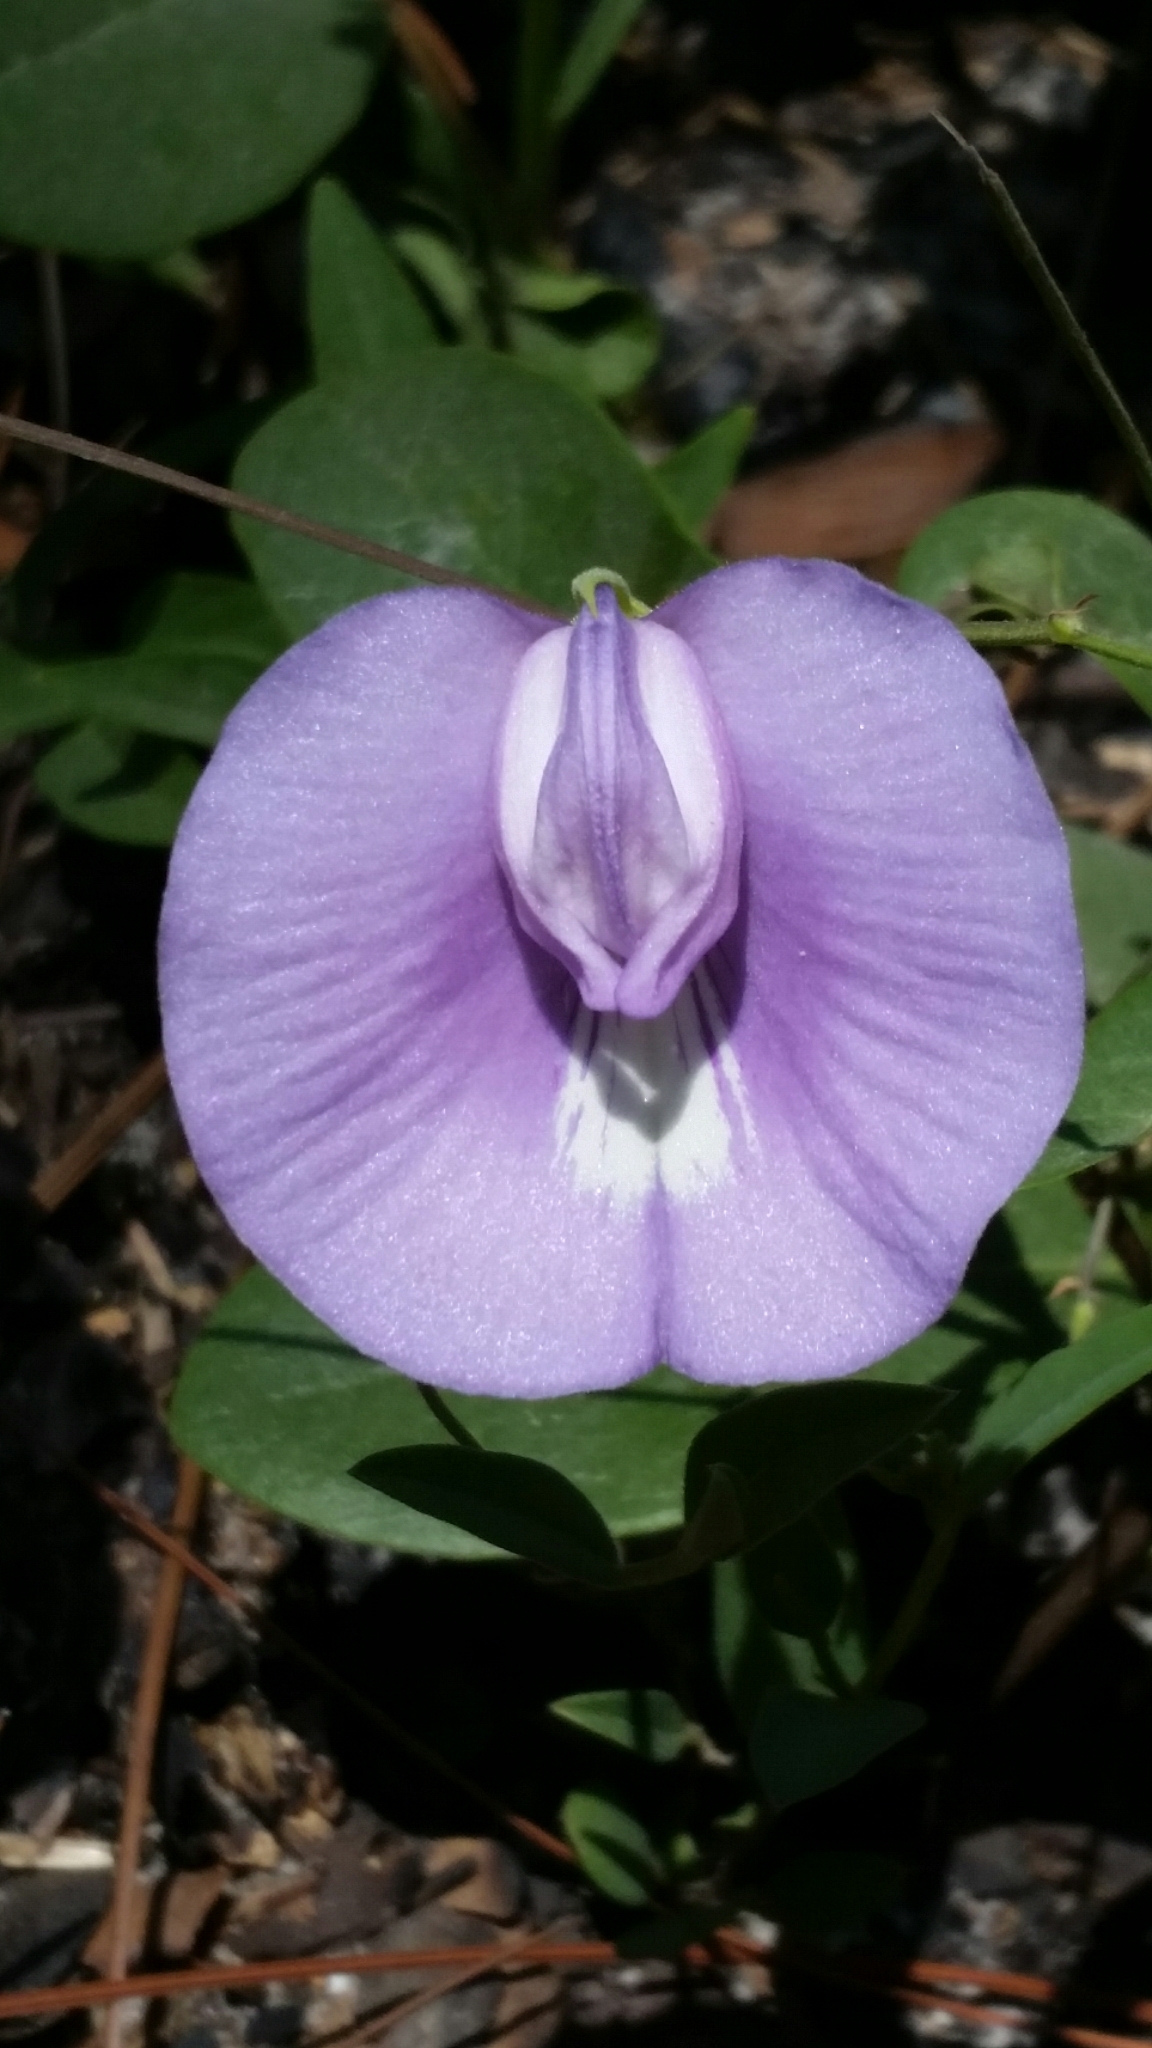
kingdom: Plantae
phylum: Tracheophyta
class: Magnoliopsida
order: Fabales
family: Fabaceae
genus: Centrosema
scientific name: Centrosema virginianum
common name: Butterfly-pea
